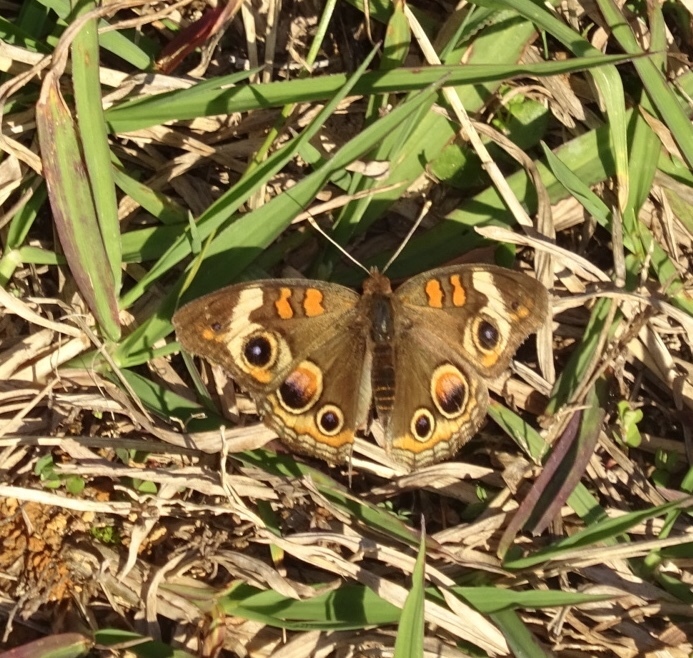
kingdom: Animalia
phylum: Arthropoda
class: Insecta
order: Lepidoptera
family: Nymphalidae
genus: Junonia
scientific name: Junonia coenia
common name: Common buckeye
